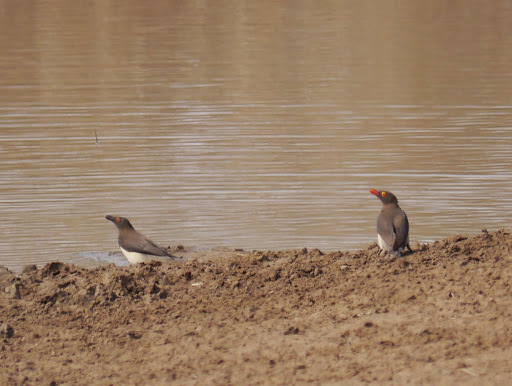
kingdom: Animalia
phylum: Chordata
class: Aves
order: Passeriformes
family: Buphagidae
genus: Buphagus
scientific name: Buphagus erythrorhynchus
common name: Red-billed oxpecker
